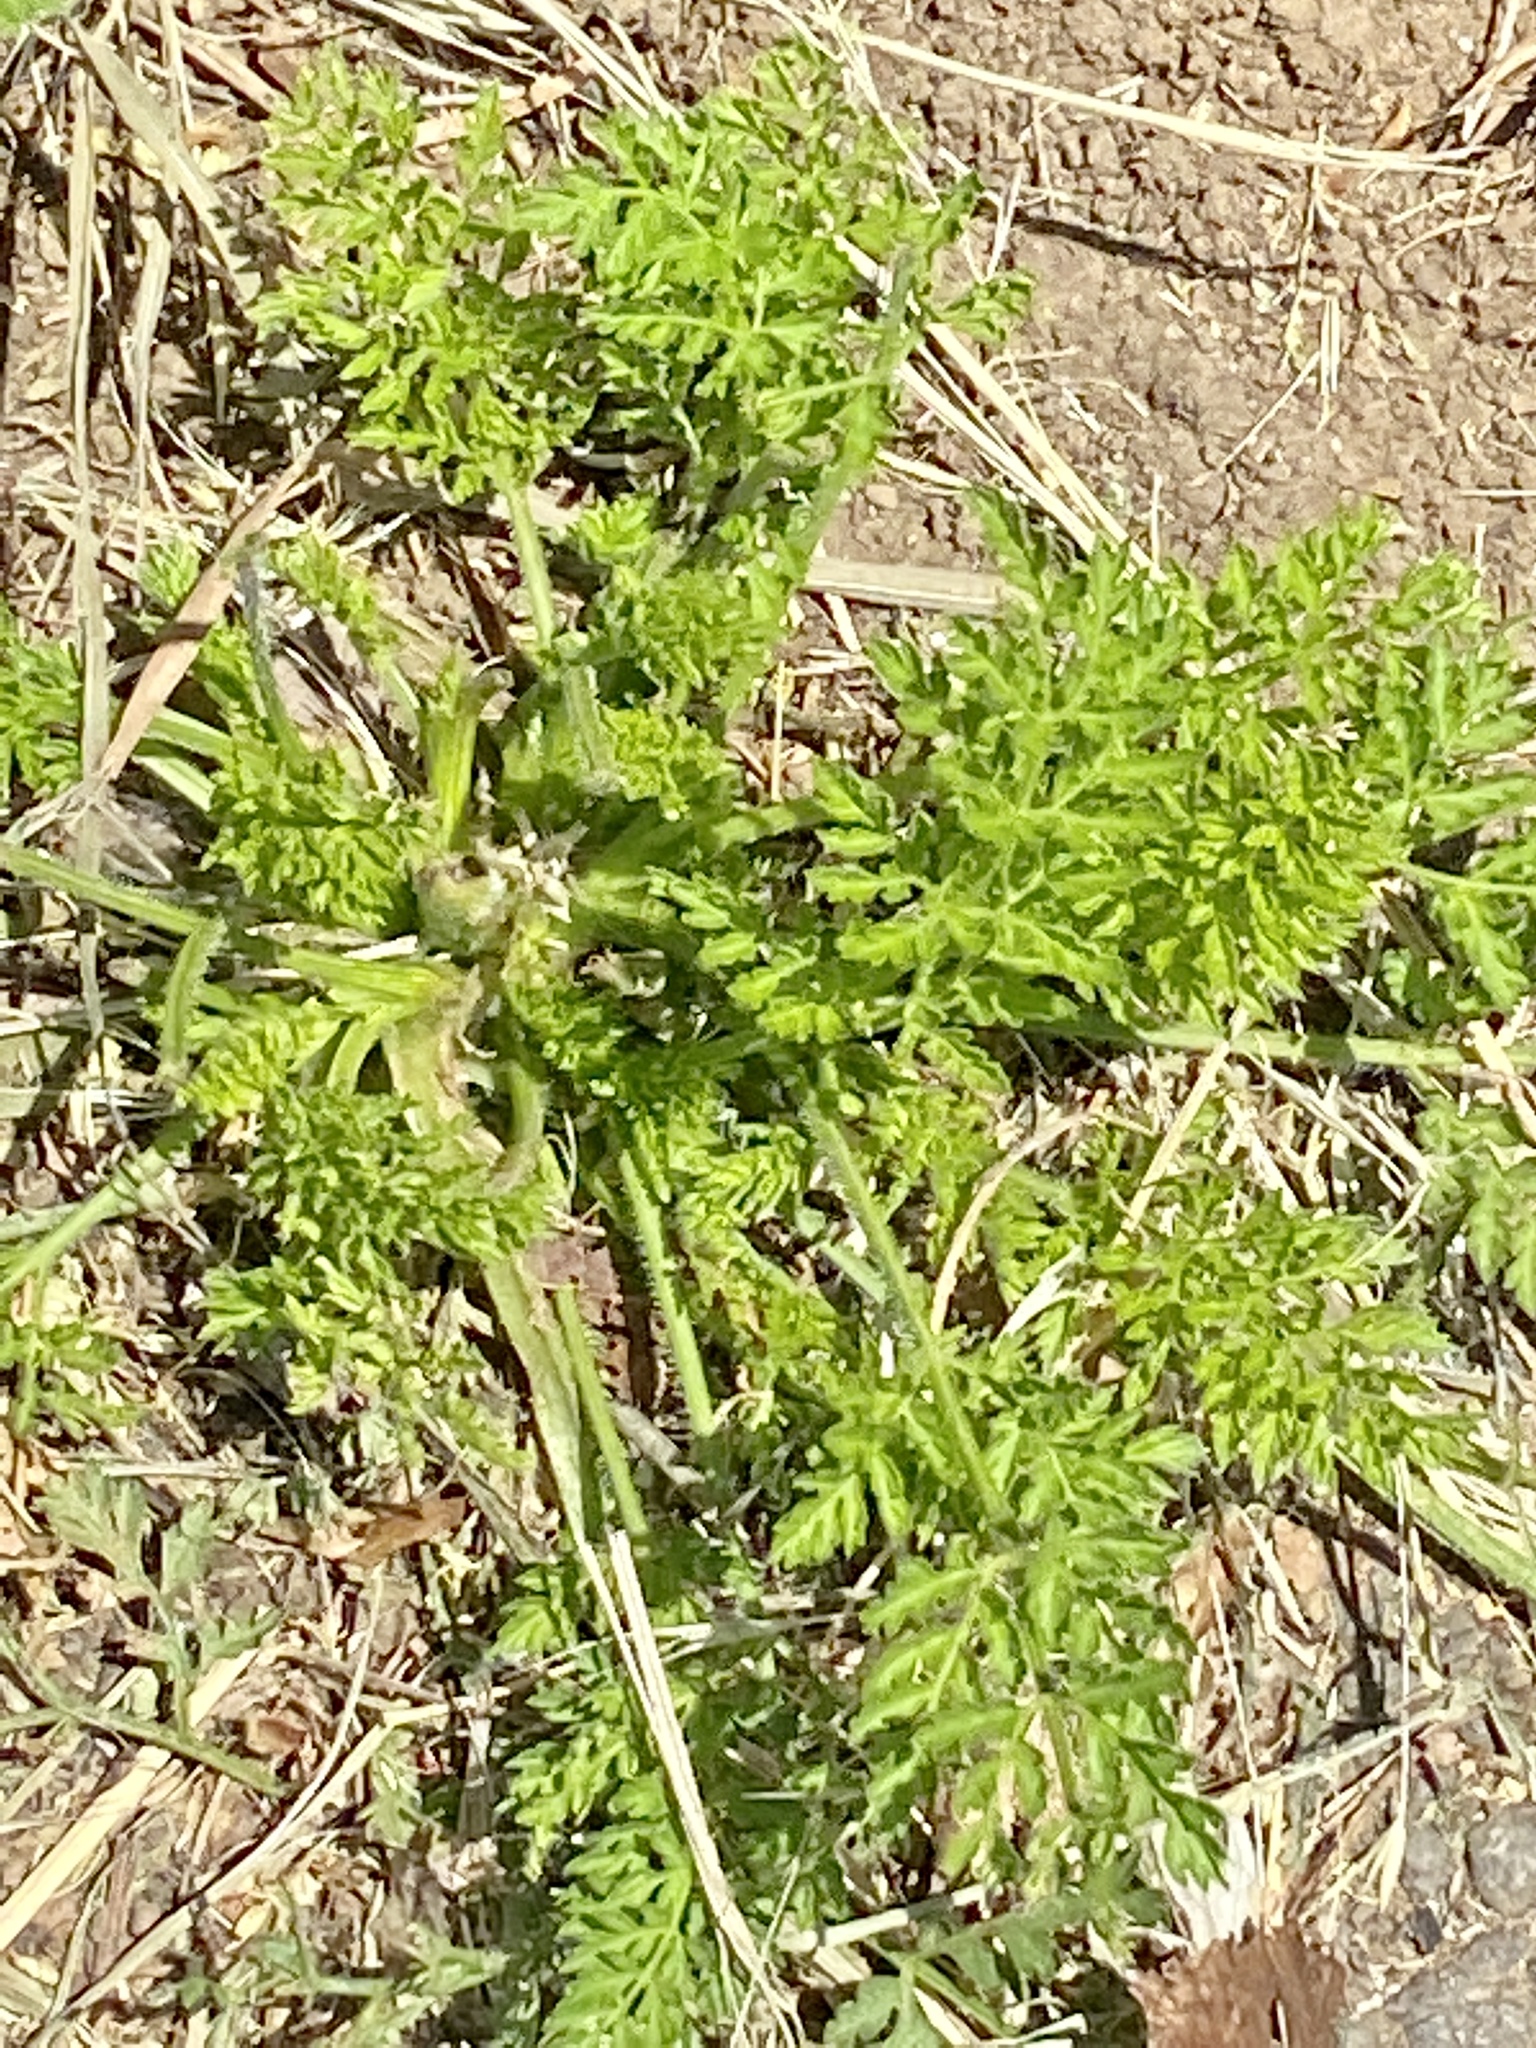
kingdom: Plantae
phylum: Tracheophyta
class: Magnoliopsida
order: Apiales
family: Apiaceae
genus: Daucus
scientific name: Daucus carota
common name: Wild carrot
